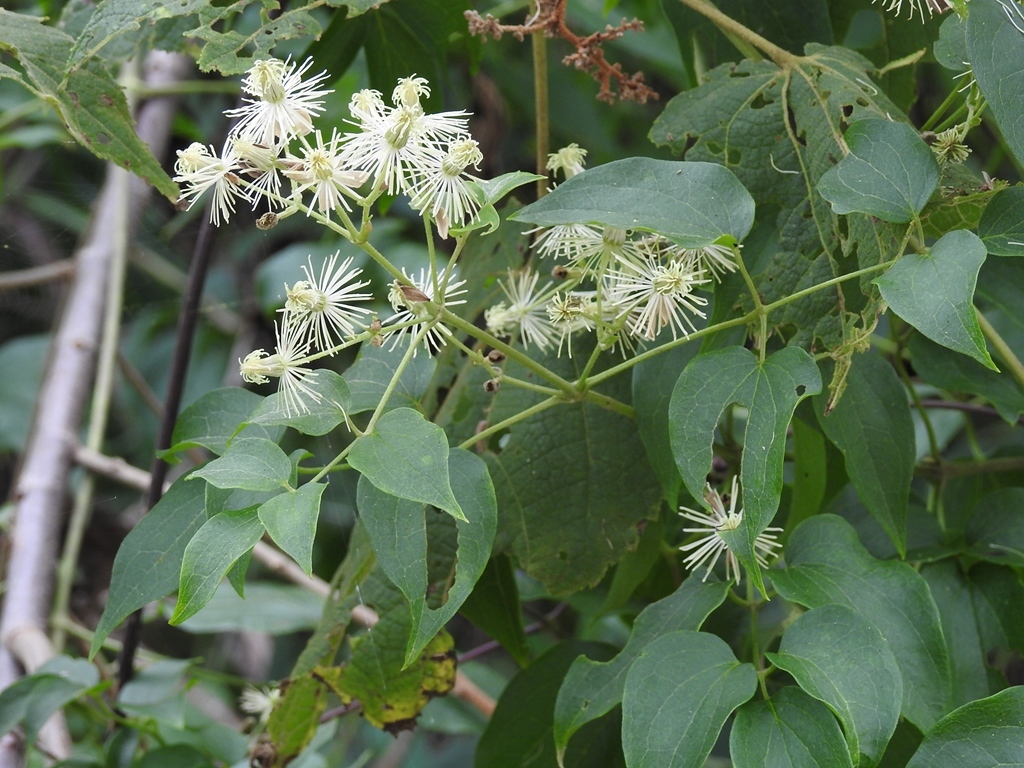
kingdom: Plantae
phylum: Tracheophyta
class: Magnoliopsida
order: Ranunculales
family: Ranunculaceae
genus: Clematis
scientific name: Clematis dioica
